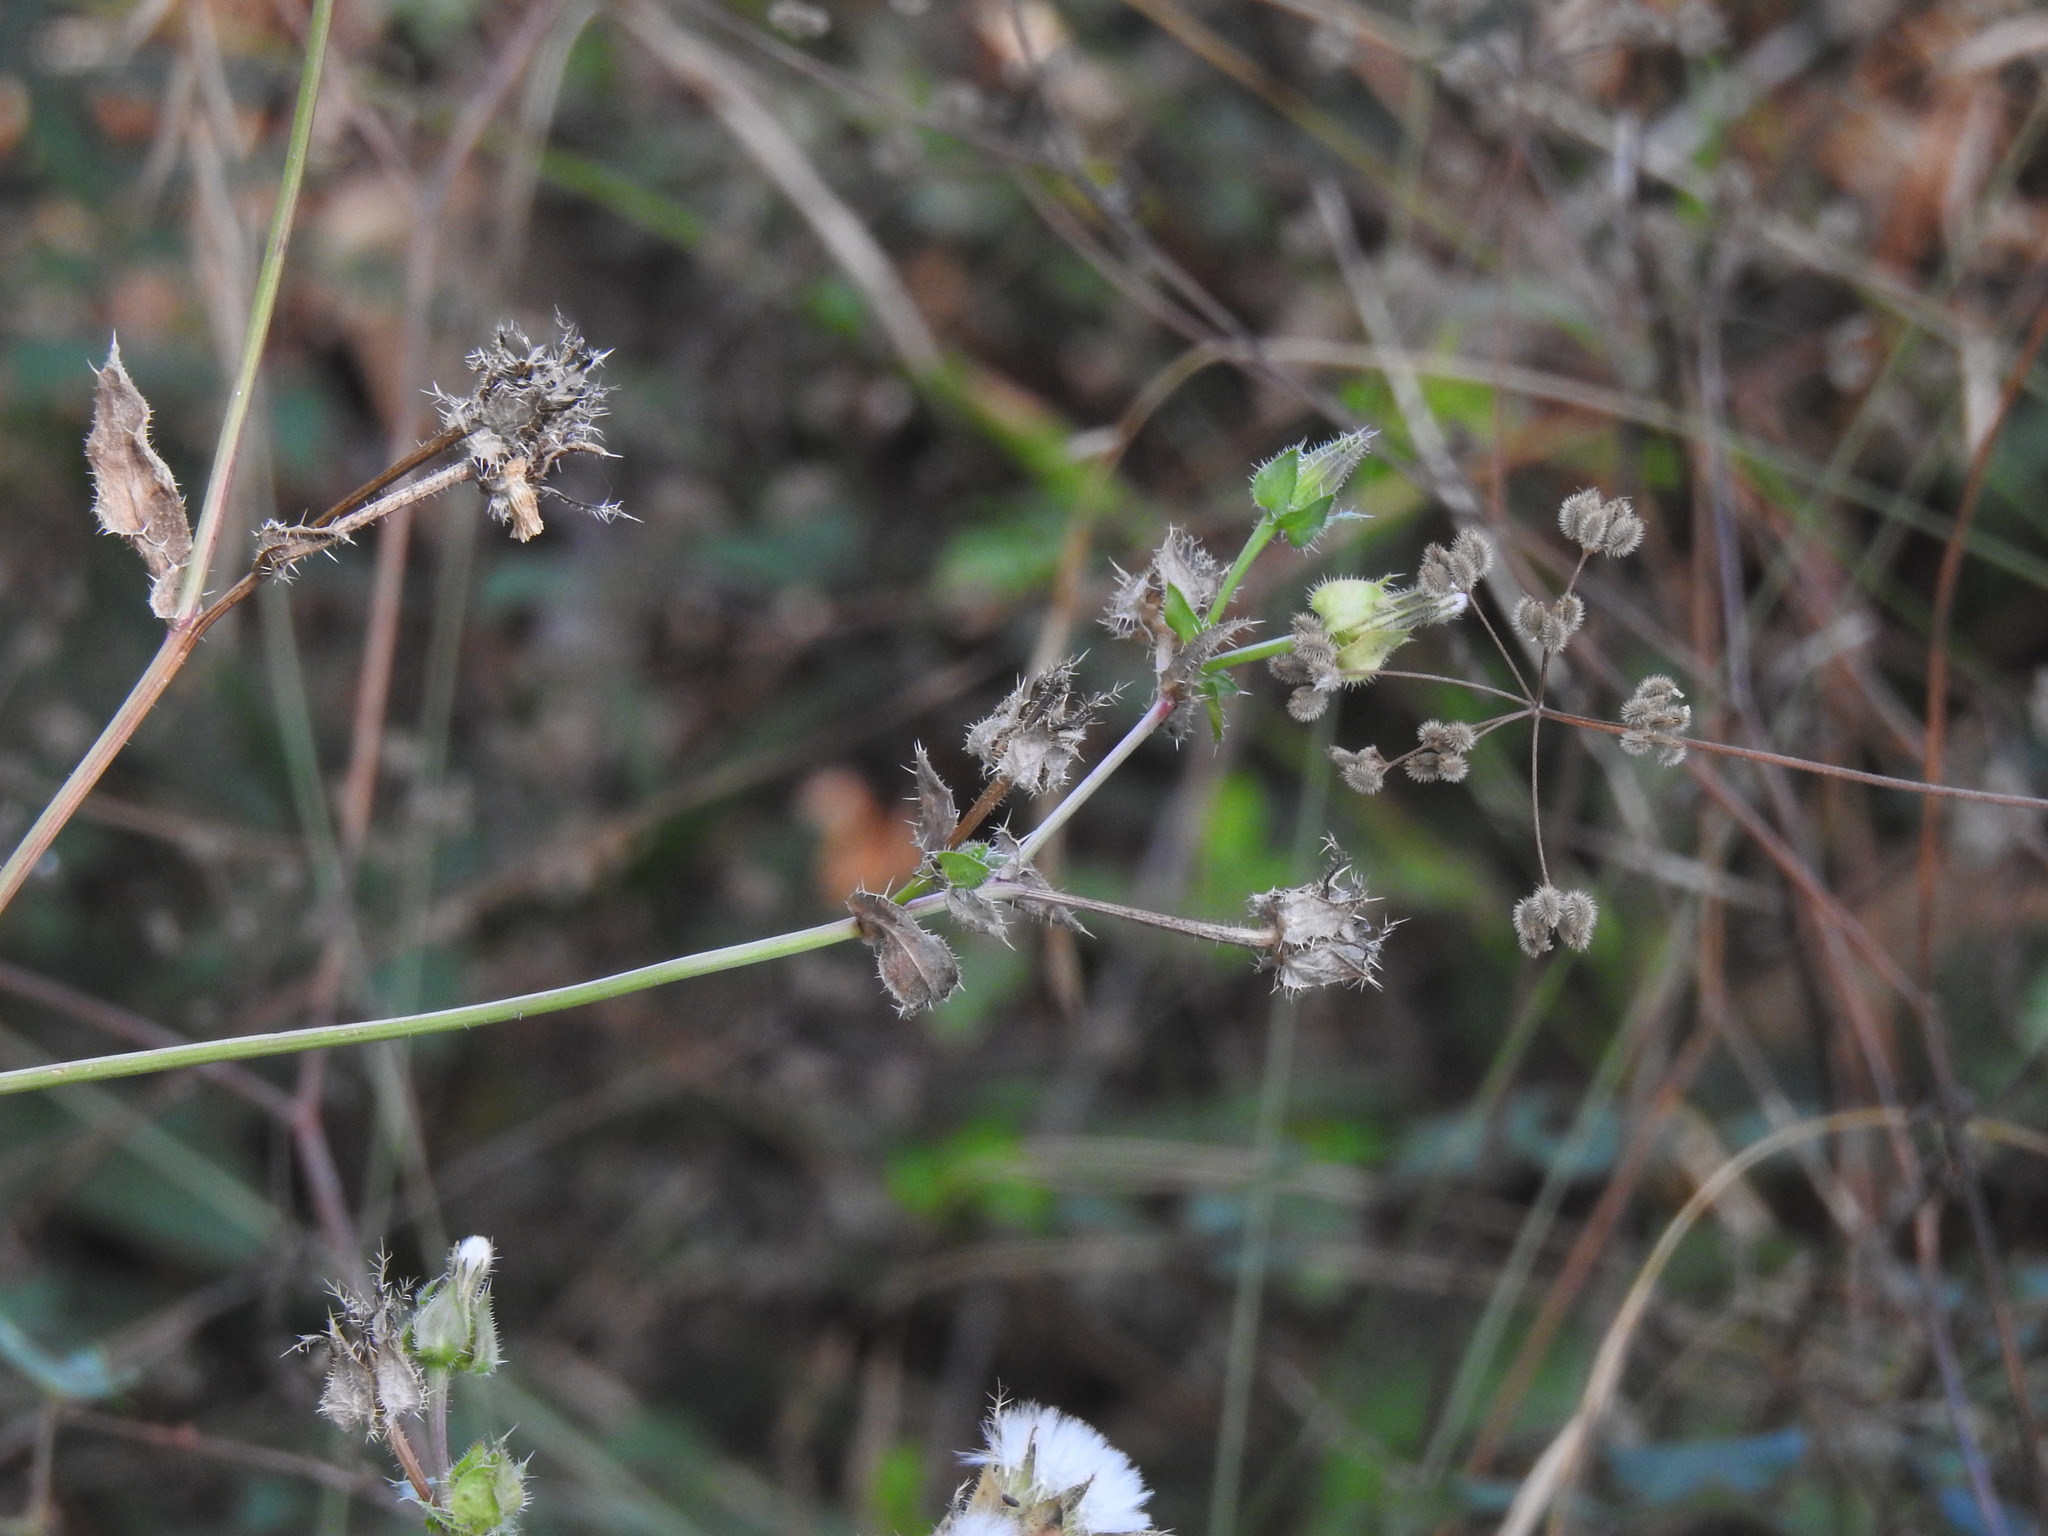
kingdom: Plantae
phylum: Tracheophyta
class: Magnoliopsida
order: Asterales
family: Asteraceae
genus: Helminthotheca
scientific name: Helminthotheca echioides
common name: Ox-tongue
